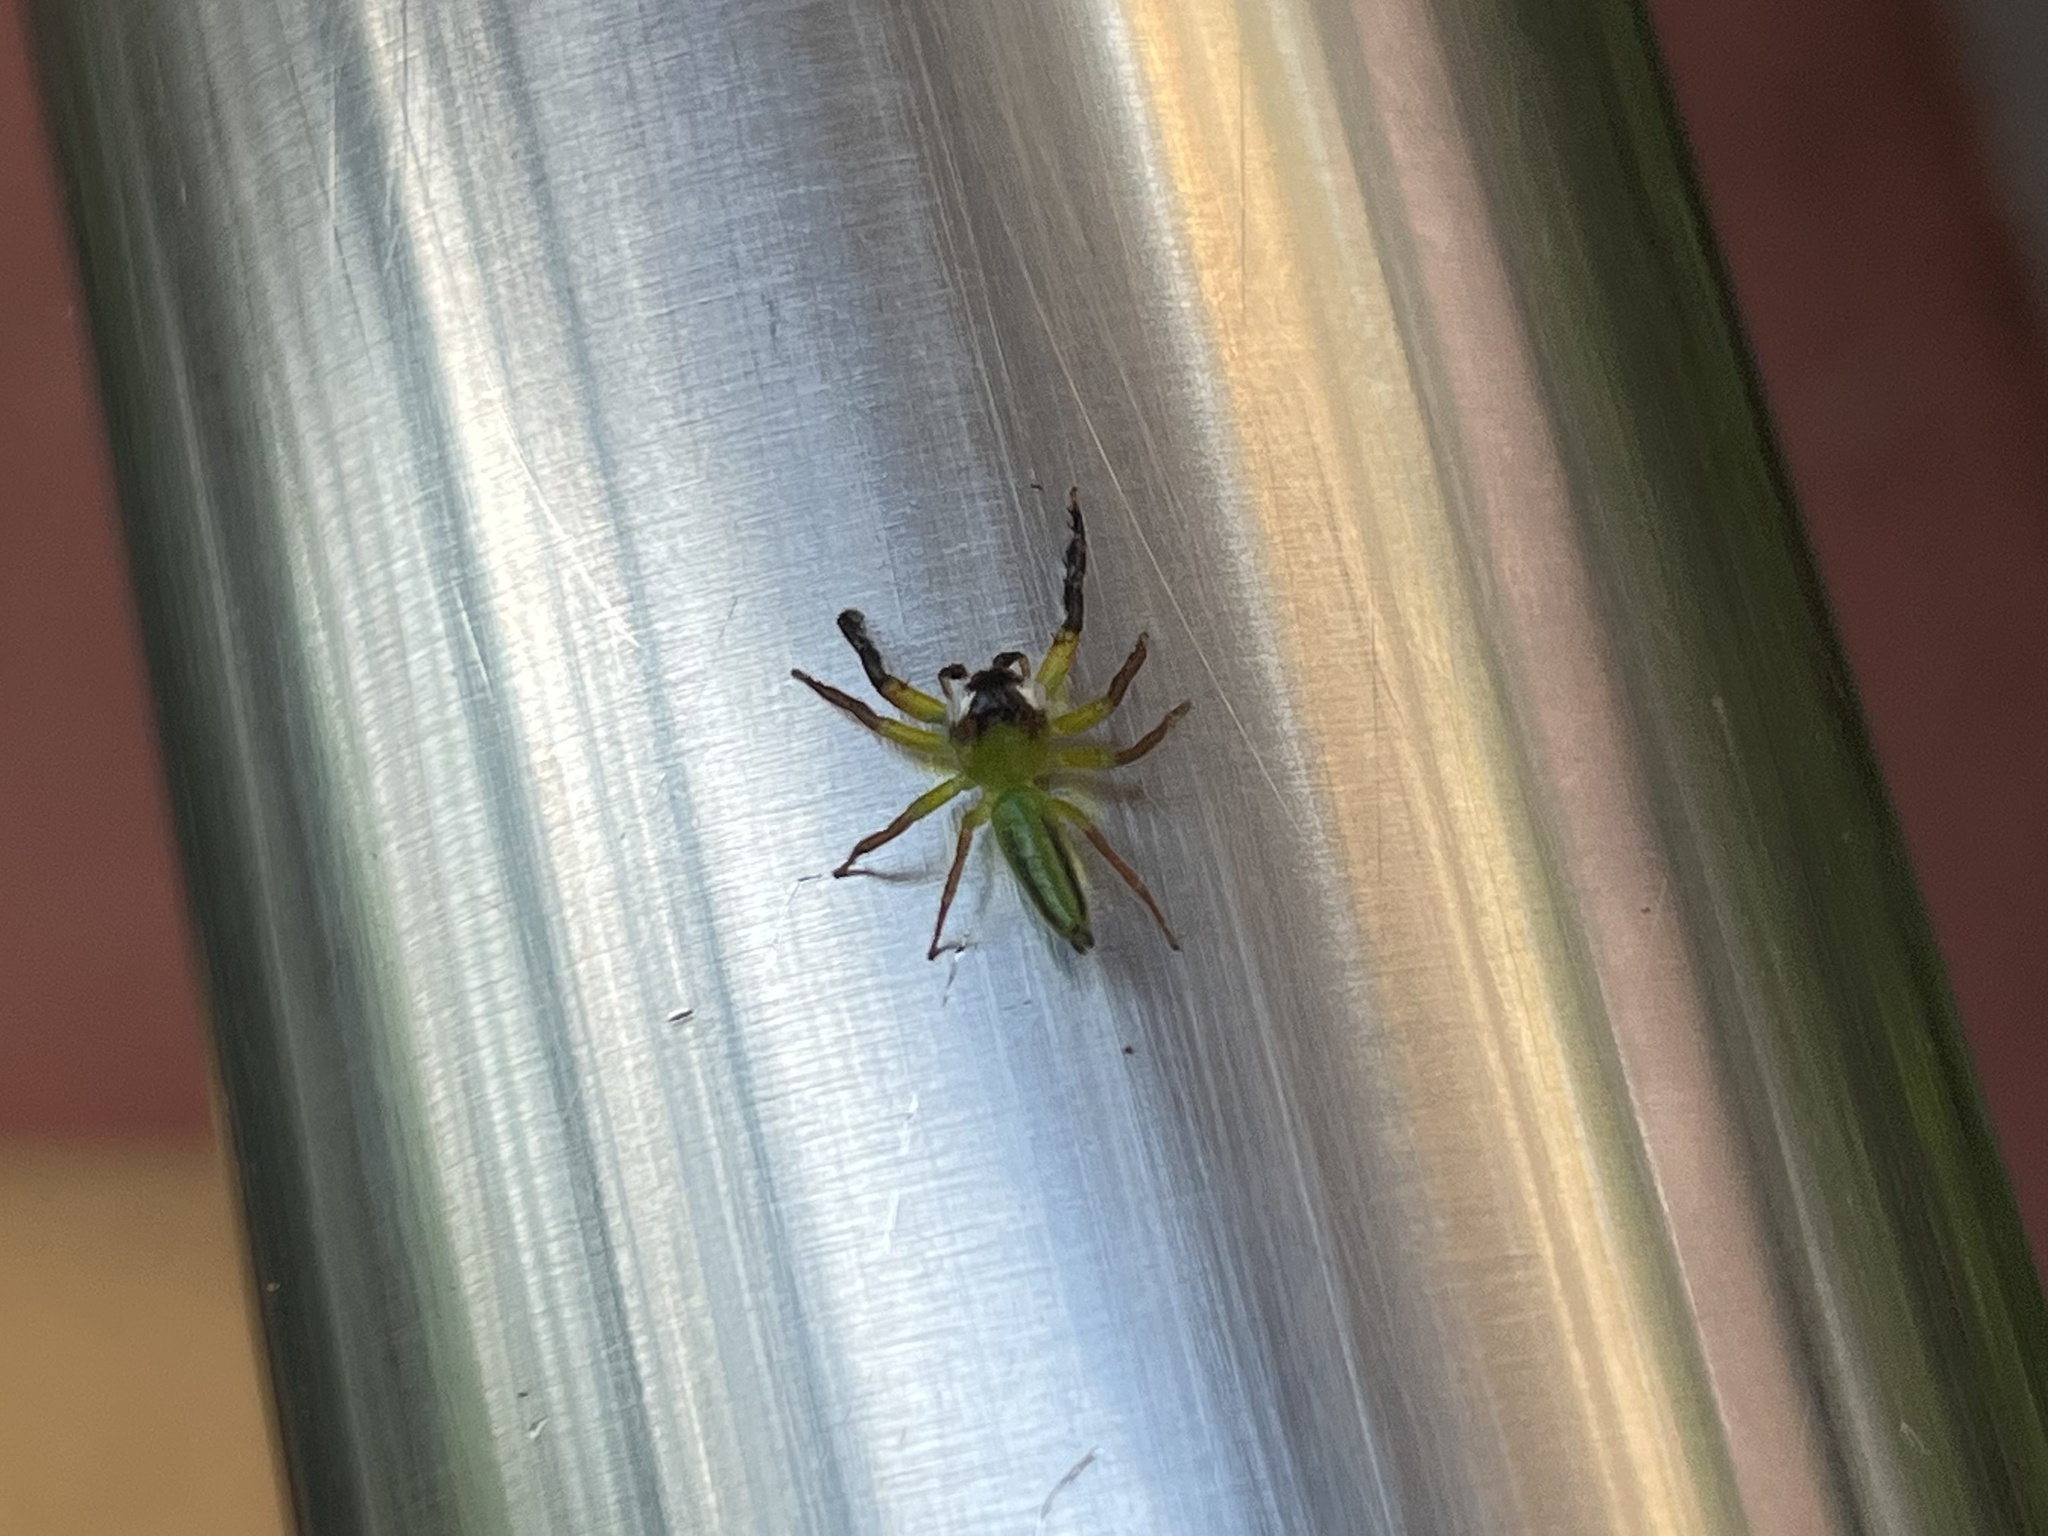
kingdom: Animalia
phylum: Arthropoda
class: Arachnida
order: Araneae
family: Salticidae
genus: Mopsus
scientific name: Mopsus mormon
